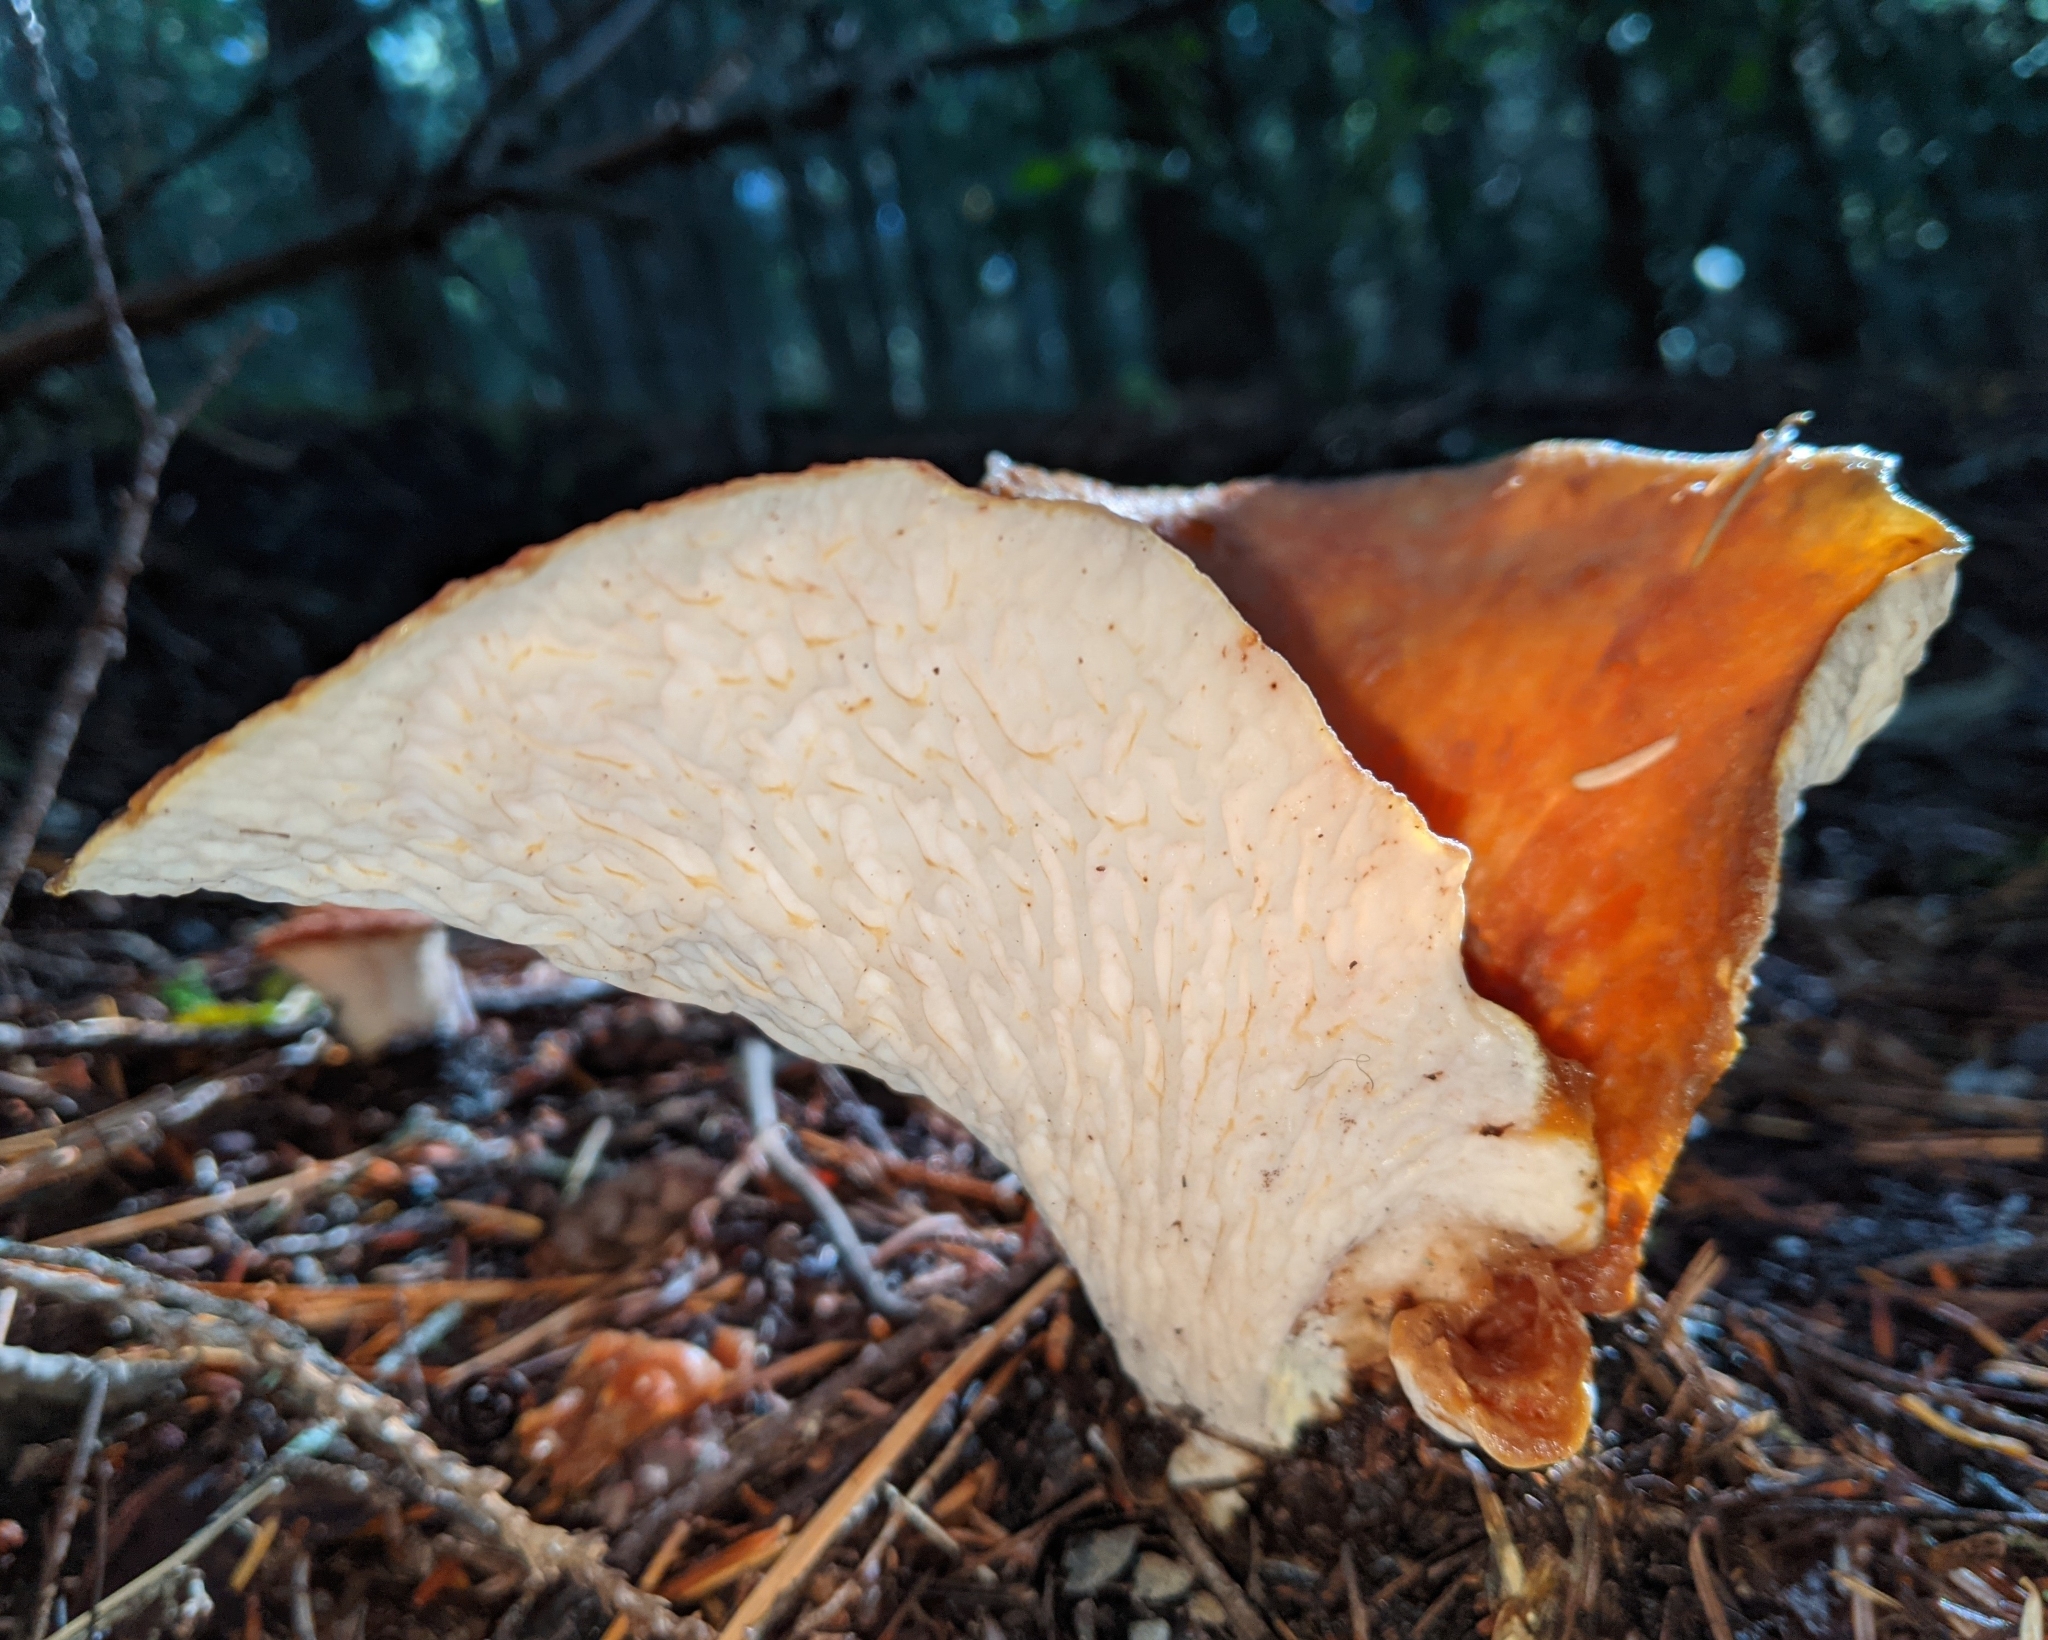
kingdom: Fungi
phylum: Basidiomycota
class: Agaricomycetes
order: Gomphales
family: Gomphaceae
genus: Turbinellus
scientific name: Turbinellus floccosus
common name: Scaly chanterelle
